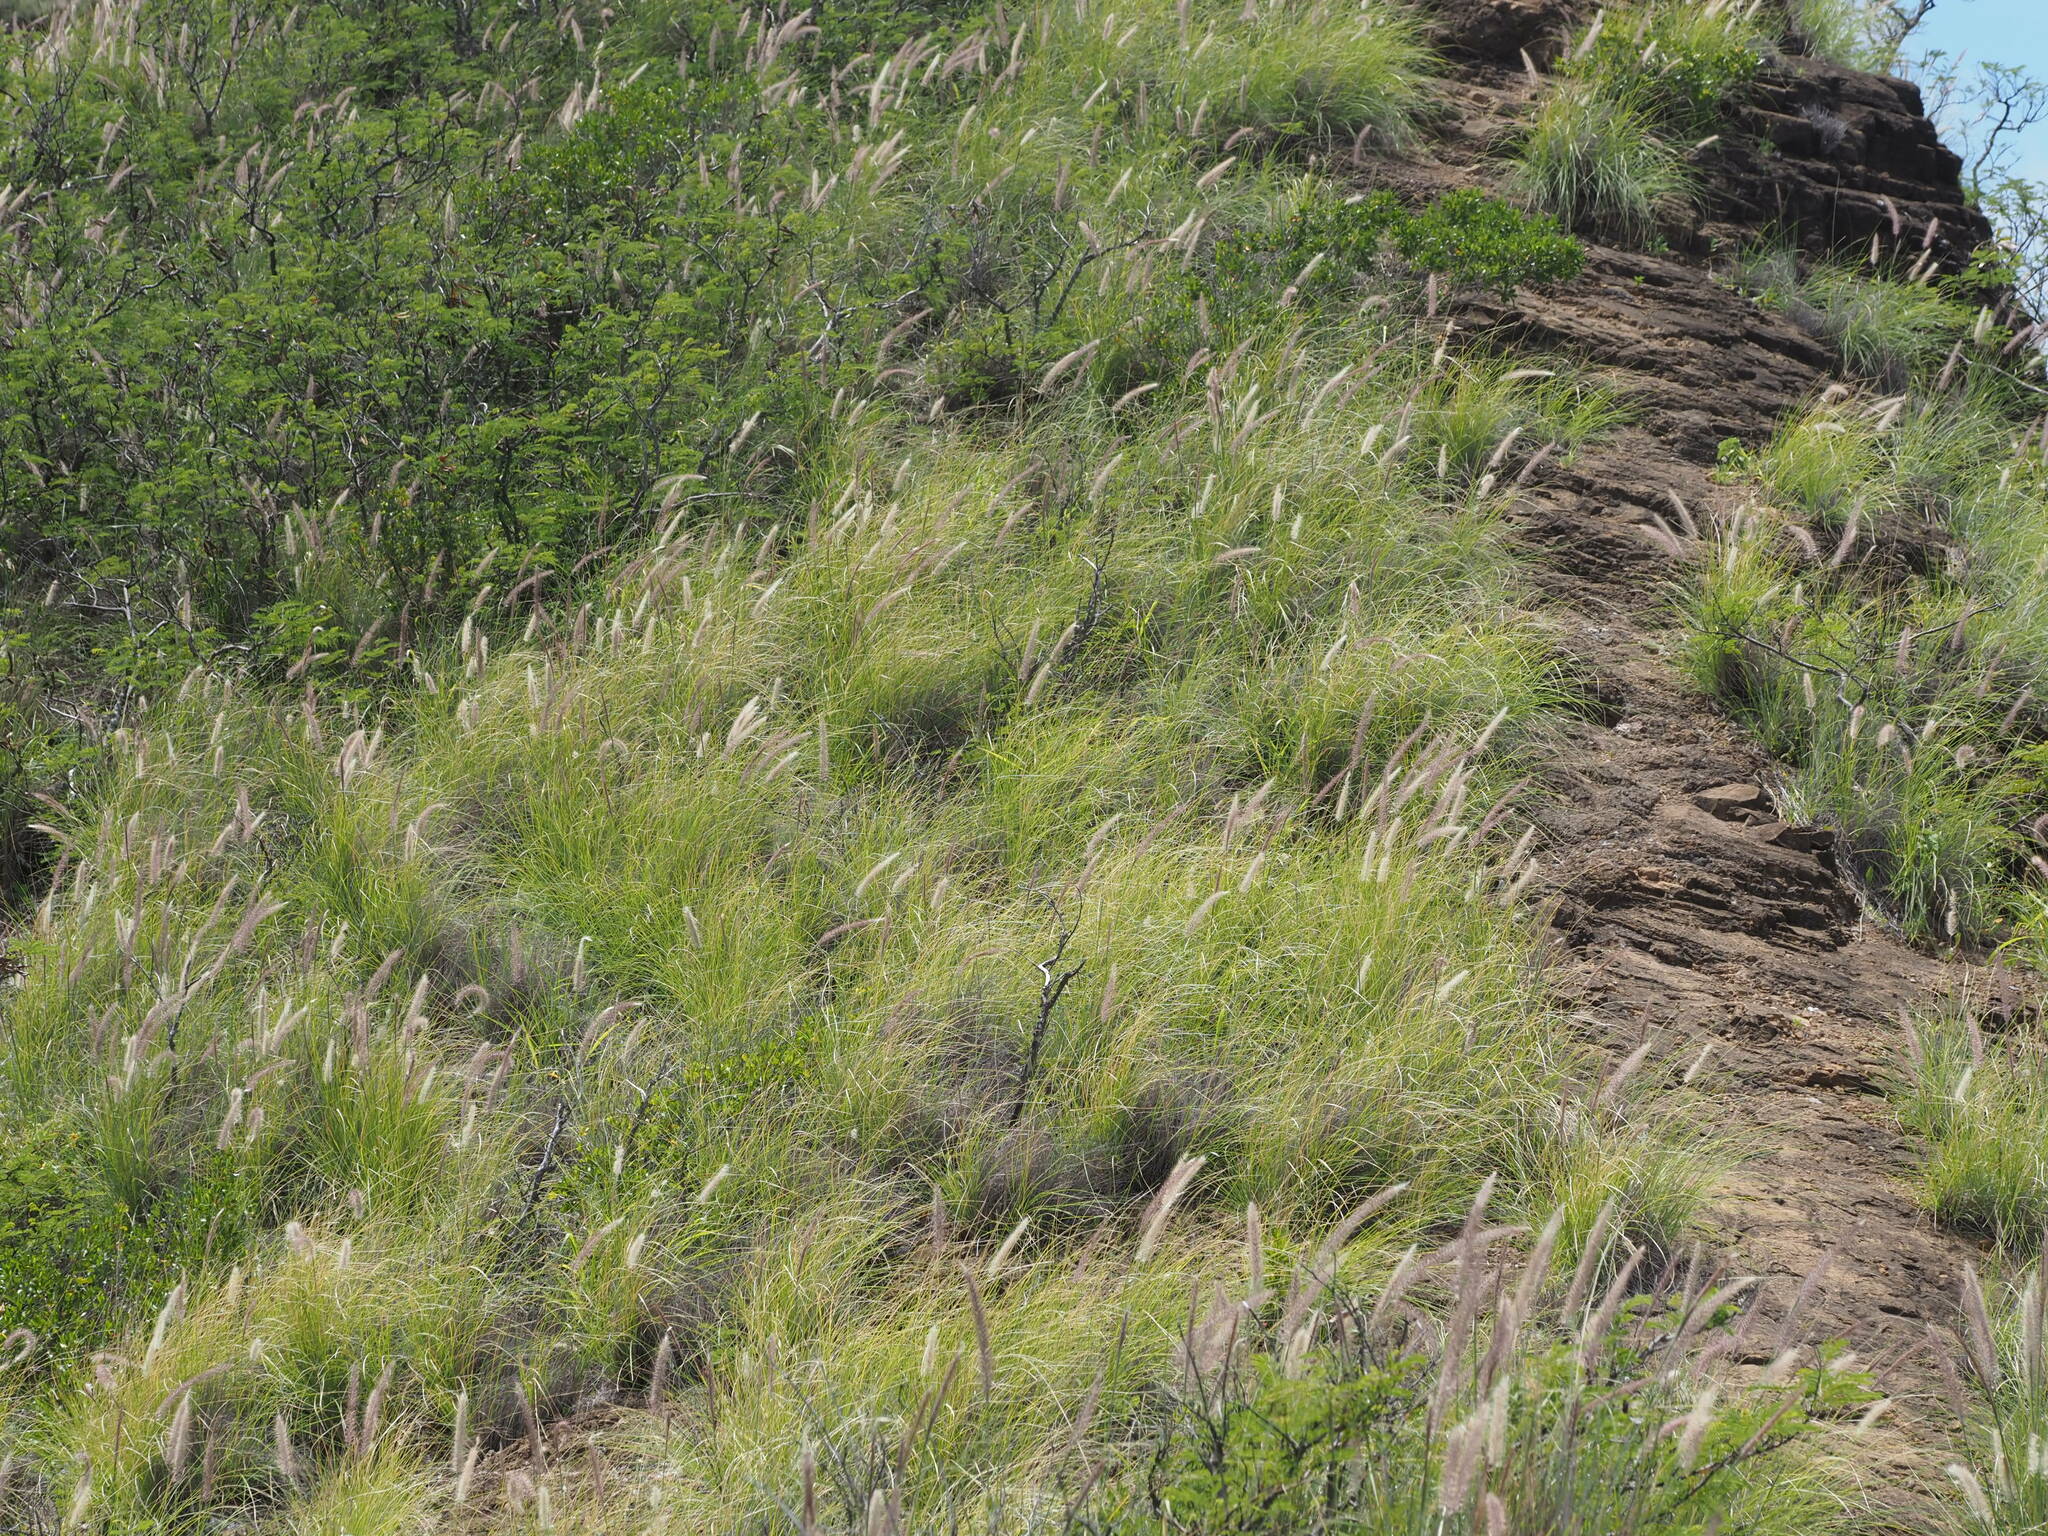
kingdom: Plantae
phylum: Tracheophyta
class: Liliopsida
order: Poales
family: Poaceae
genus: Cenchrus
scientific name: Cenchrus setaceus
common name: Crimson fountaingrass
